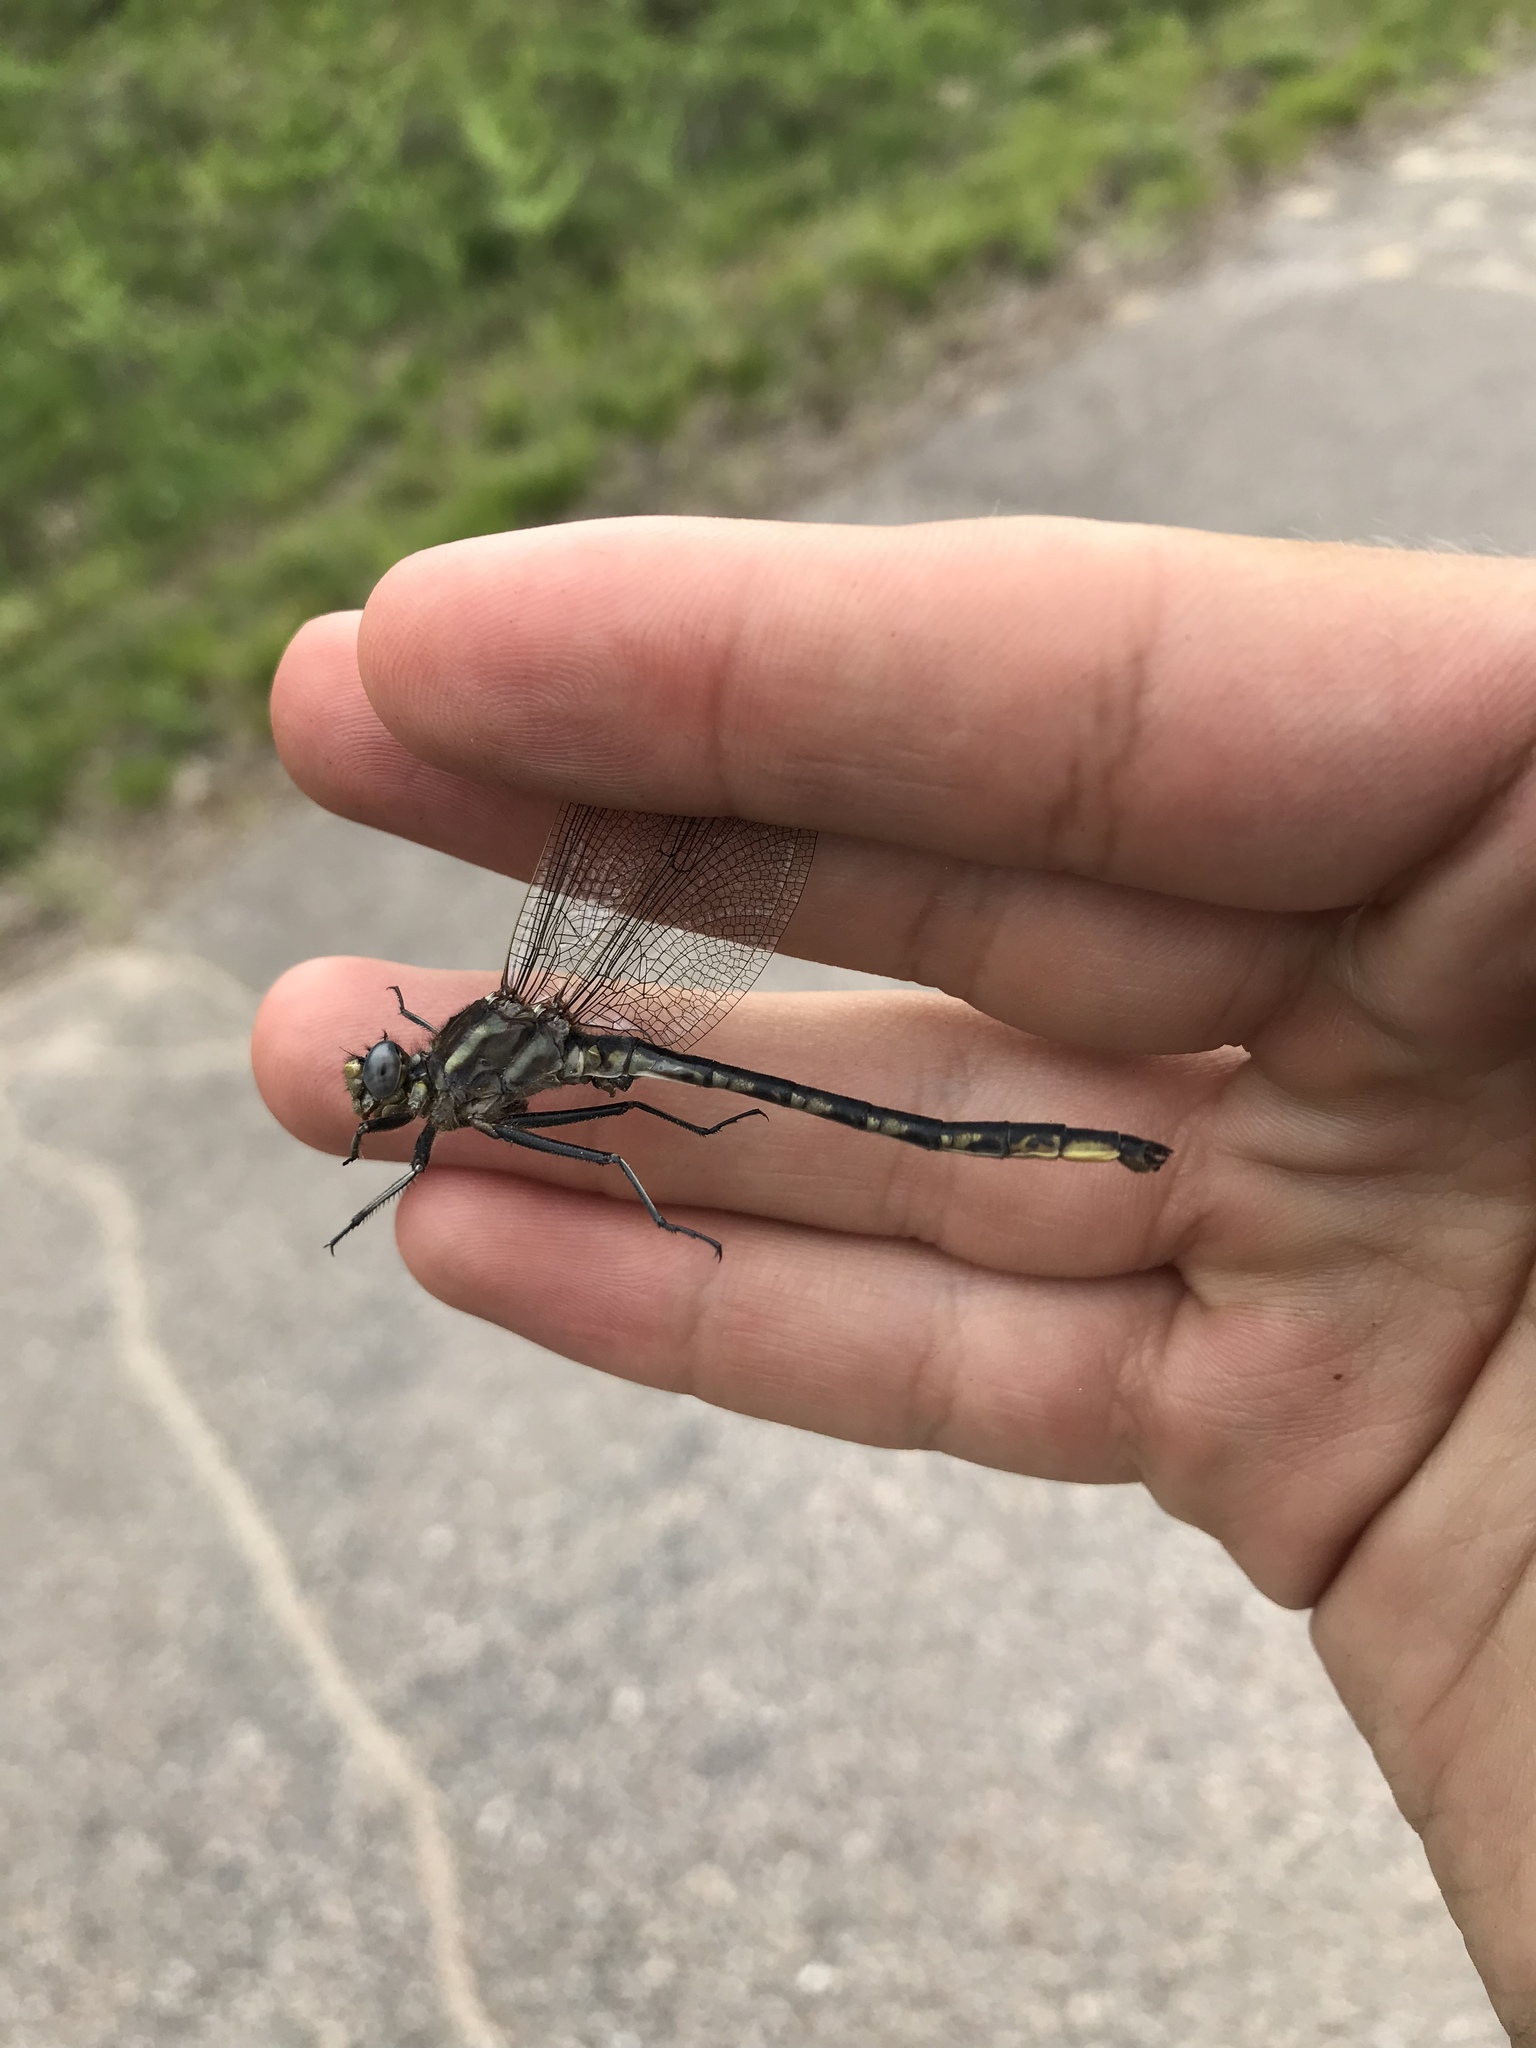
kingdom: Animalia
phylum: Arthropoda
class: Insecta
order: Odonata
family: Gomphidae
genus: Phanogomphus
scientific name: Phanogomphus spicatus
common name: Dusky clubtail
